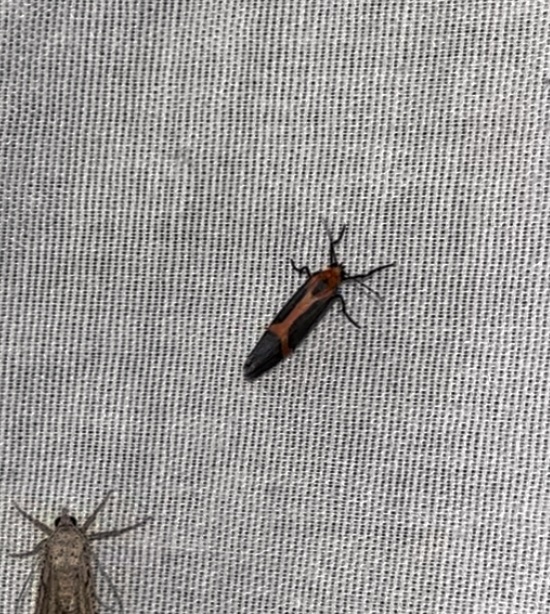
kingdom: Animalia
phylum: Arthropoda
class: Insecta
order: Lepidoptera
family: Erebidae
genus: Cisthene
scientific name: Cisthene perrosea
